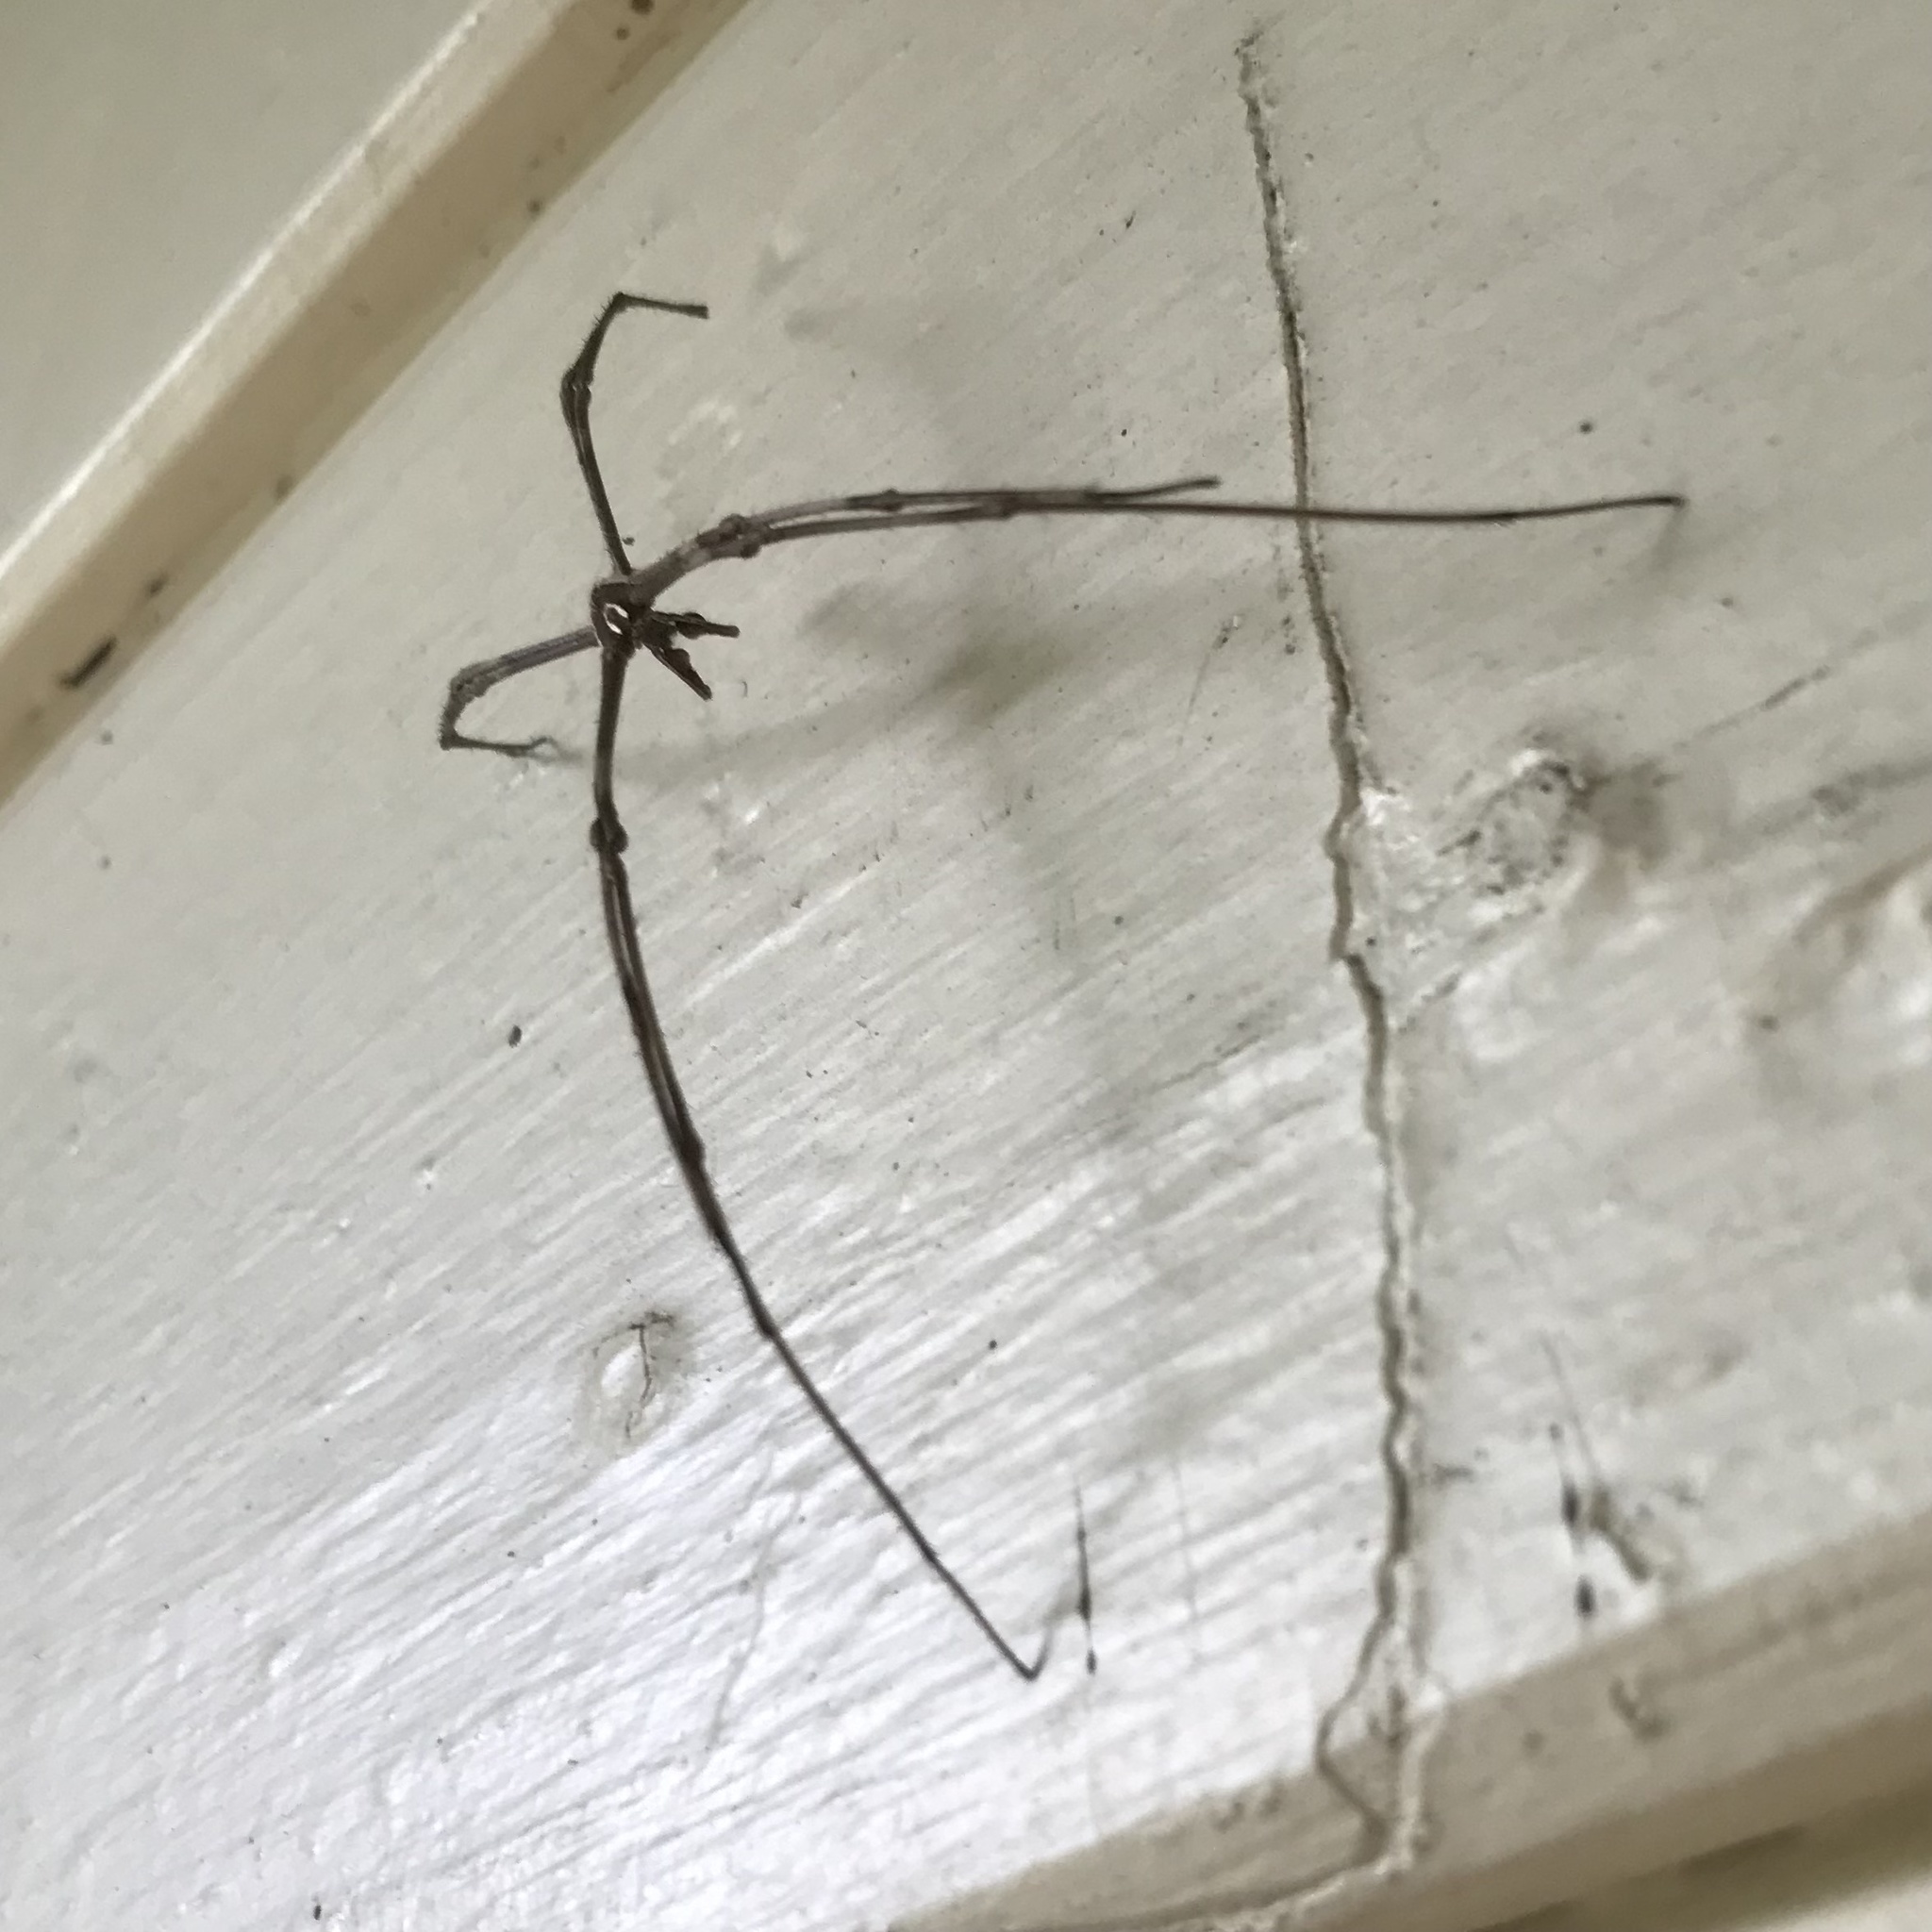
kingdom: Animalia
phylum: Arthropoda
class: Arachnida
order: Araneae
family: Deinopidae
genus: Deinopis
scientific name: Deinopis subrufa
